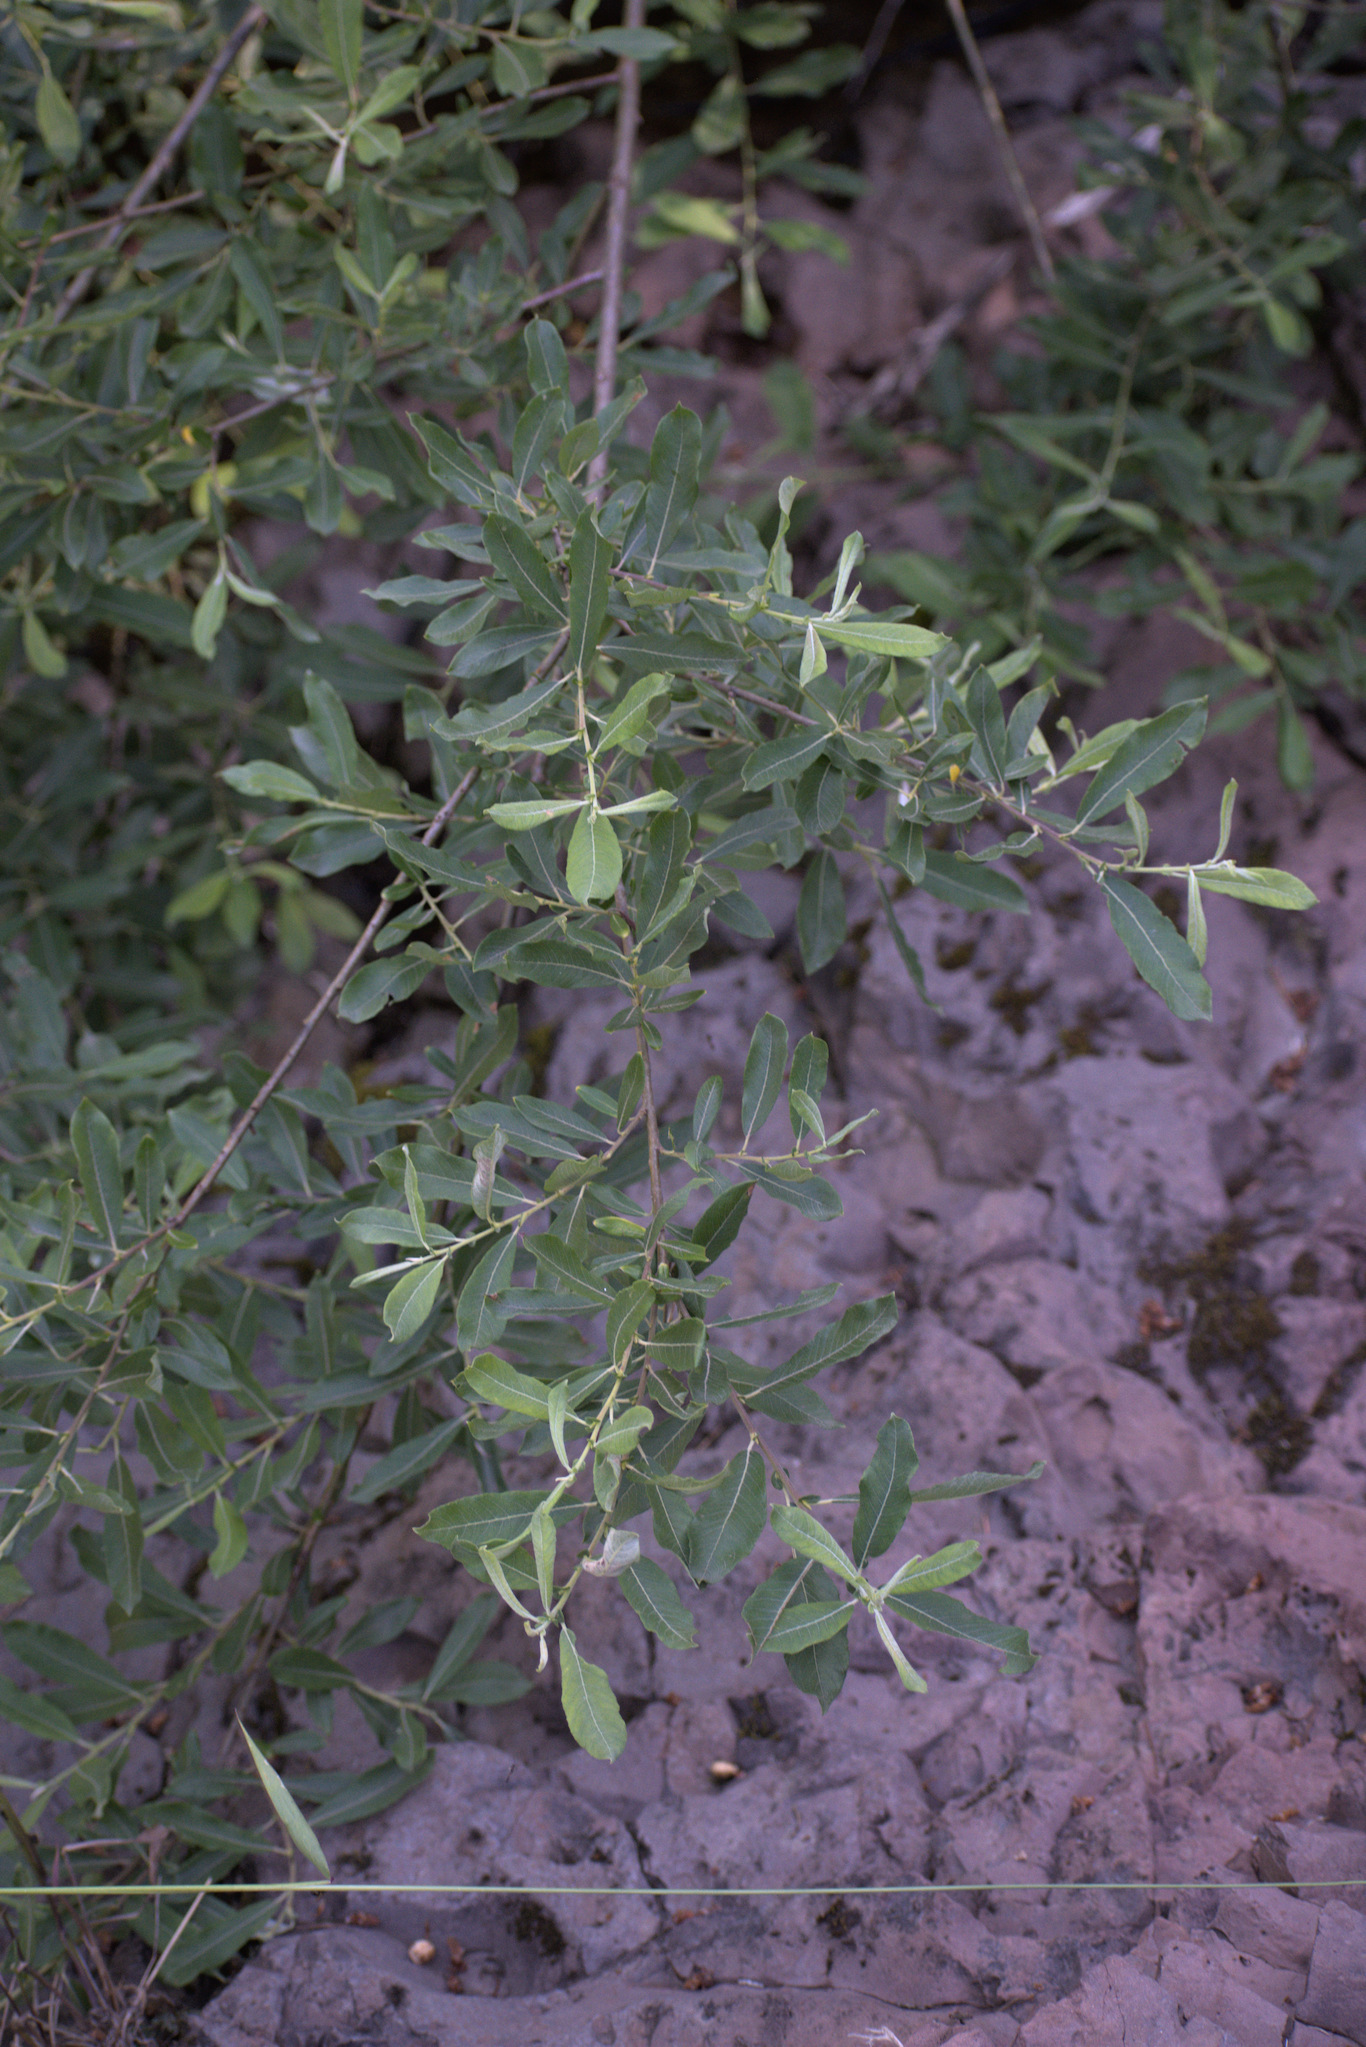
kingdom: Plantae
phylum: Tracheophyta
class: Magnoliopsida
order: Malpighiales
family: Salicaceae
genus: Salix
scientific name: Salix sitchensis
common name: Sitka willow
